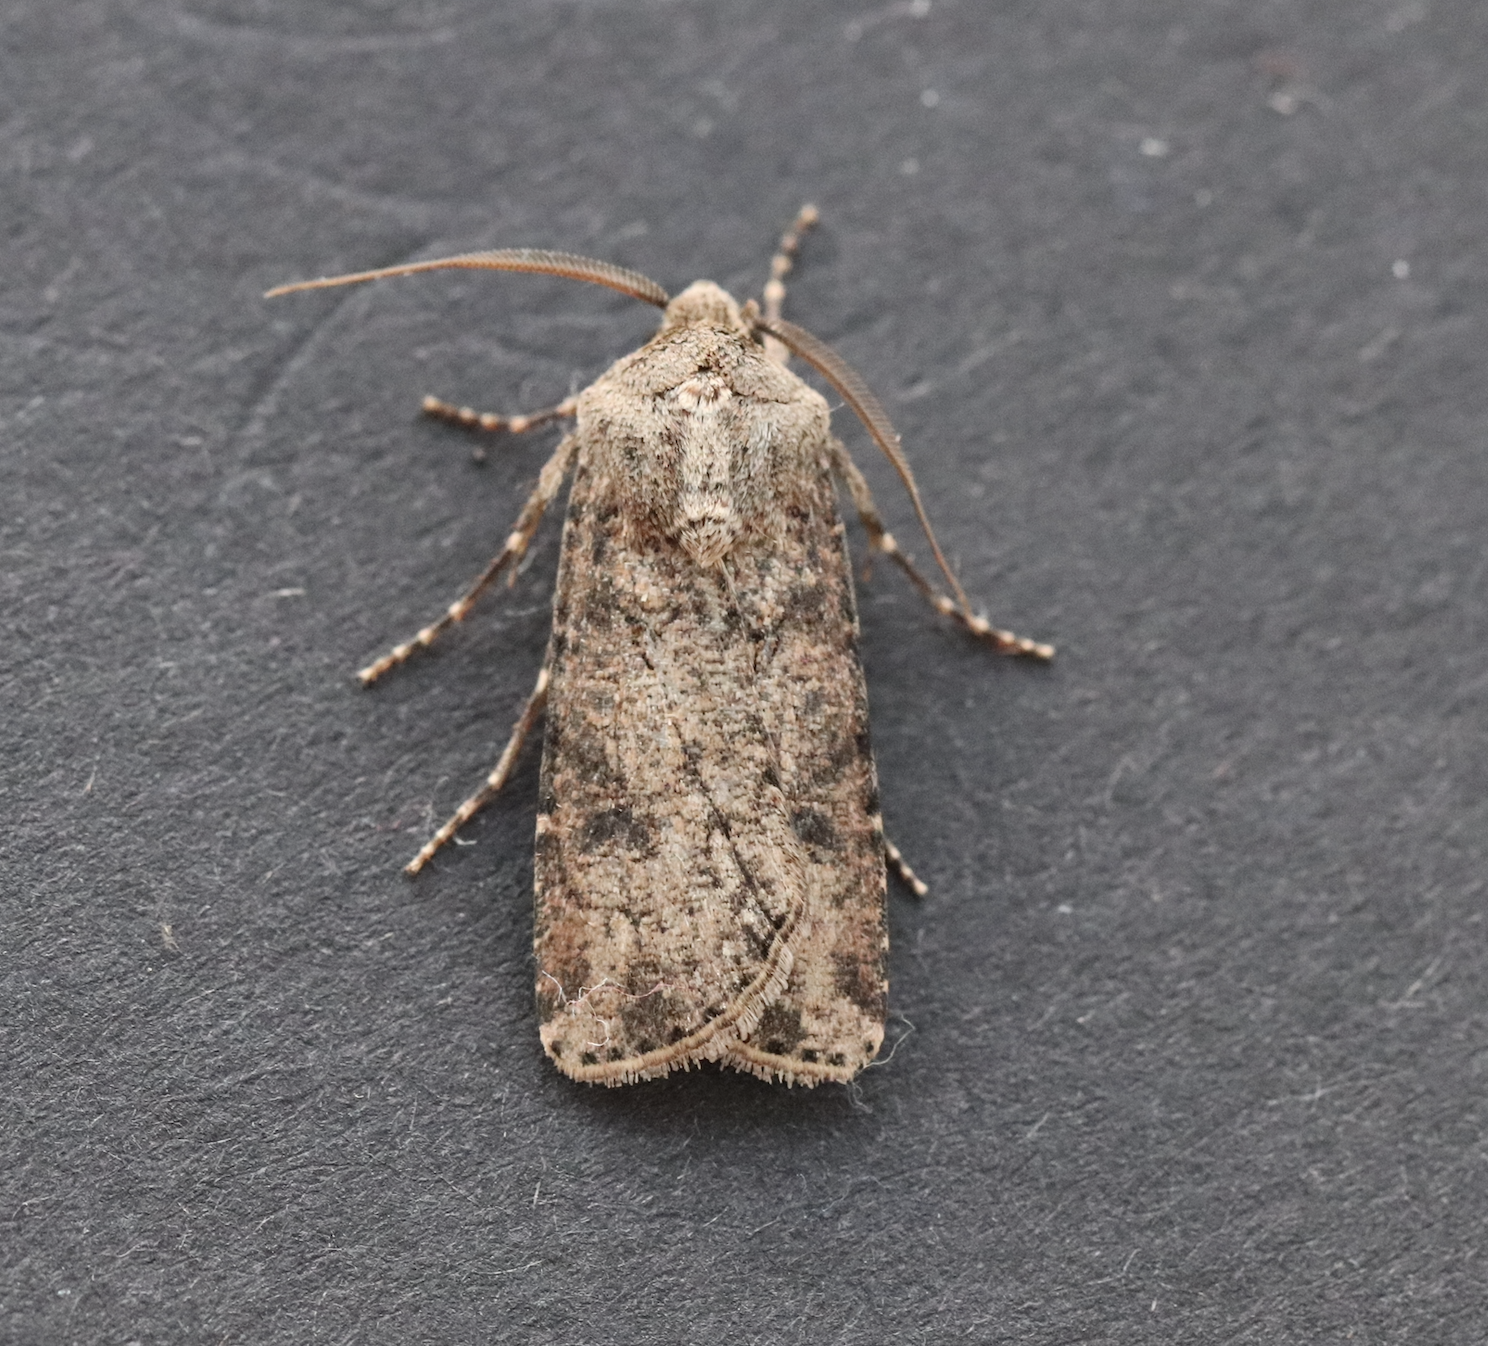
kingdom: Animalia
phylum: Arthropoda
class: Insecta
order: Lepidoptera
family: Noctuidae
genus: Agrotis
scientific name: Agrotis segetum
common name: Turnip moth
